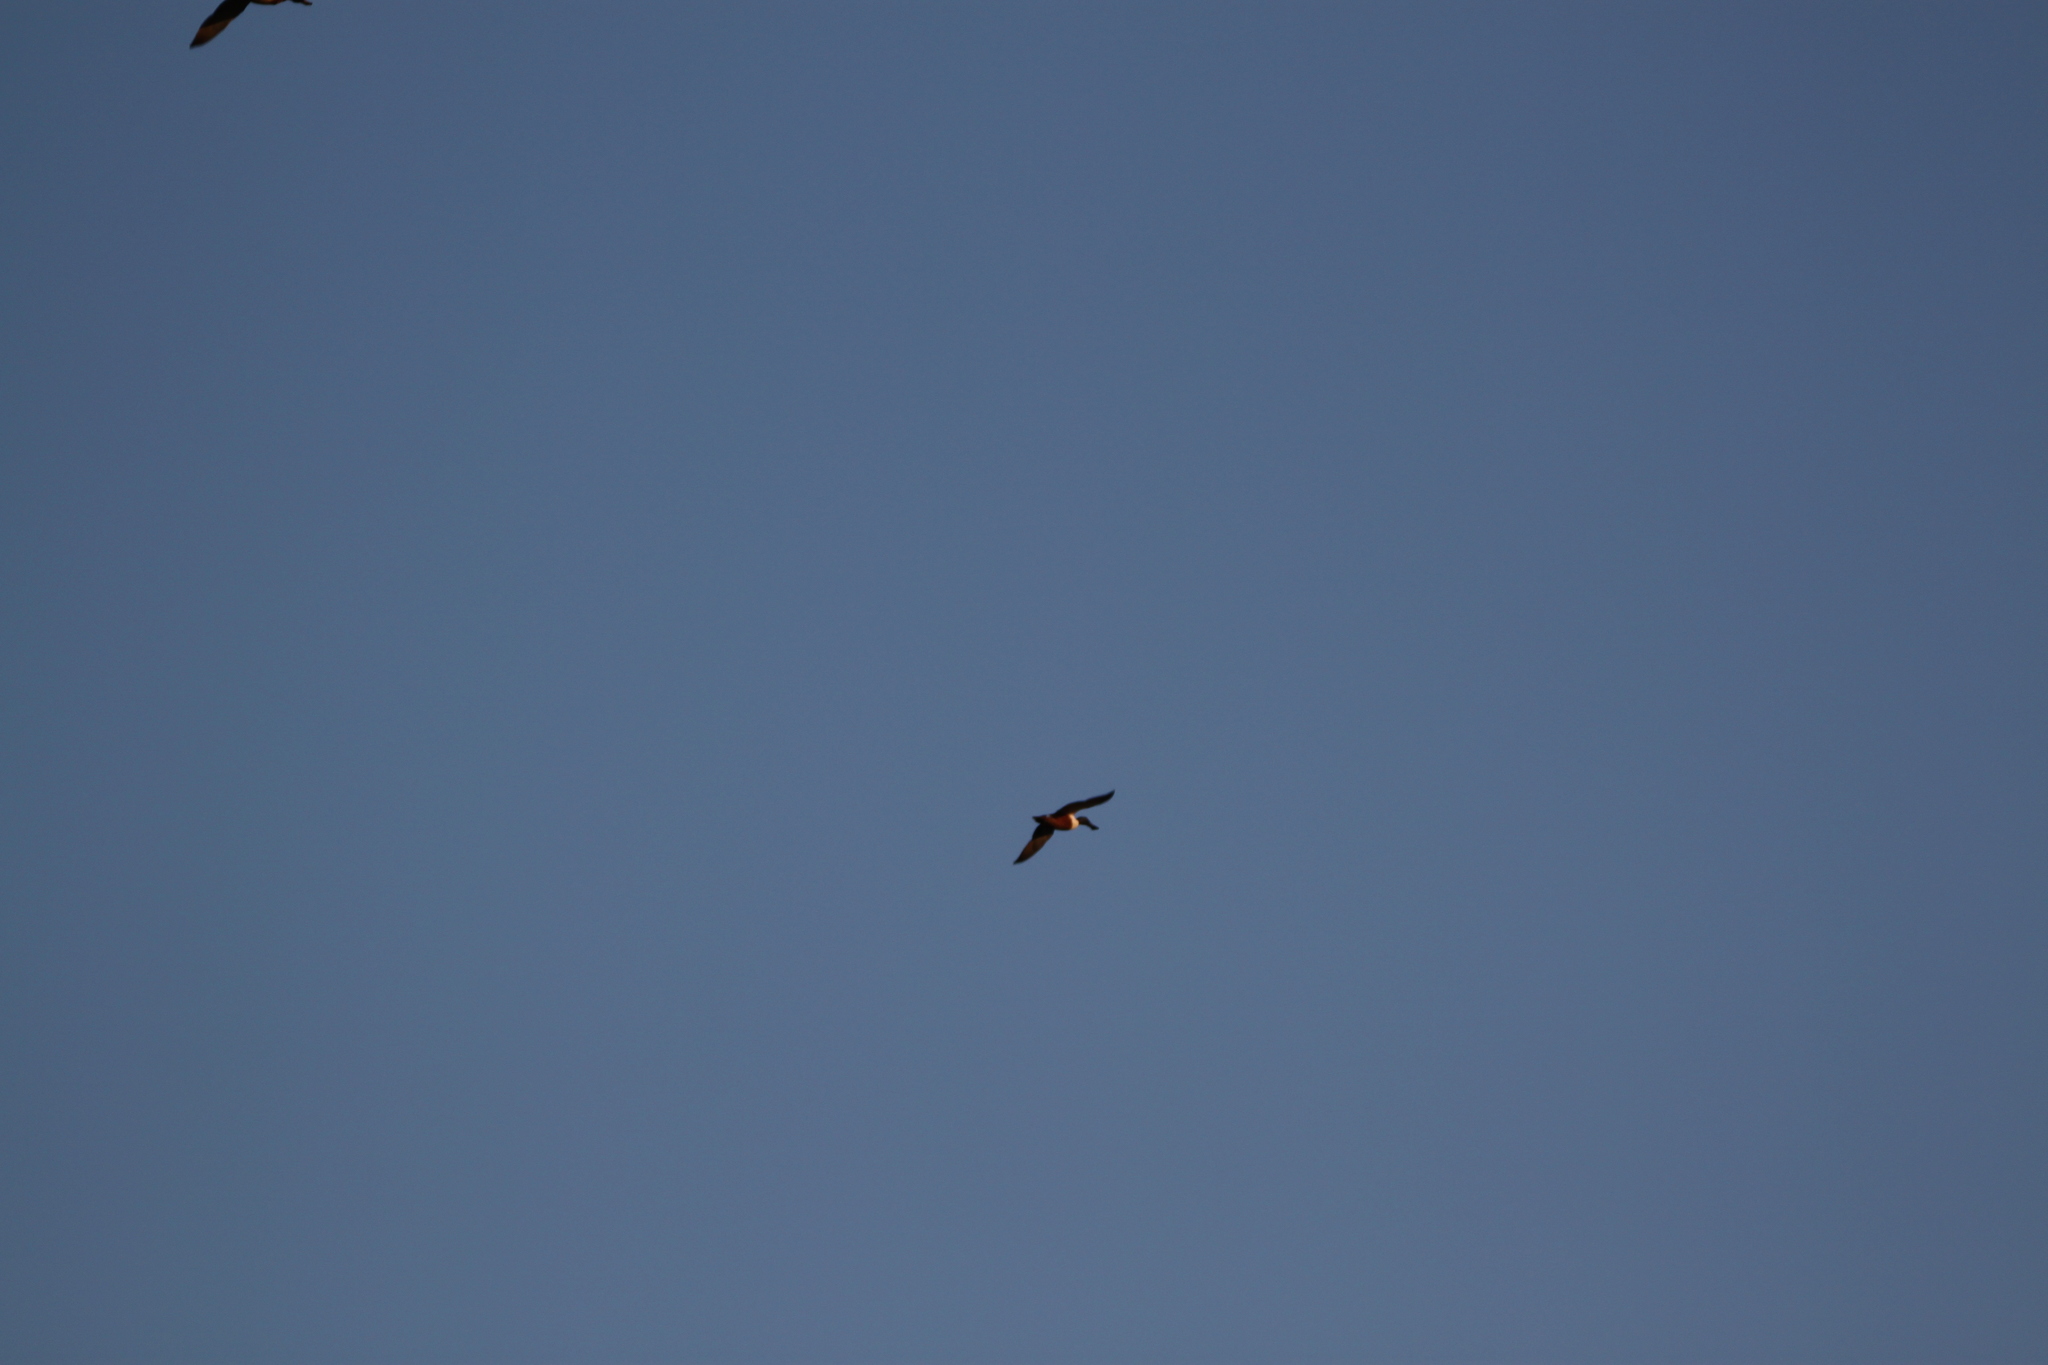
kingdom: Animalia
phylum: Chordata
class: Aves
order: Anseriformes
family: Anatidae
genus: Spatula
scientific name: Spatula clypeata
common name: Northern shoveler
